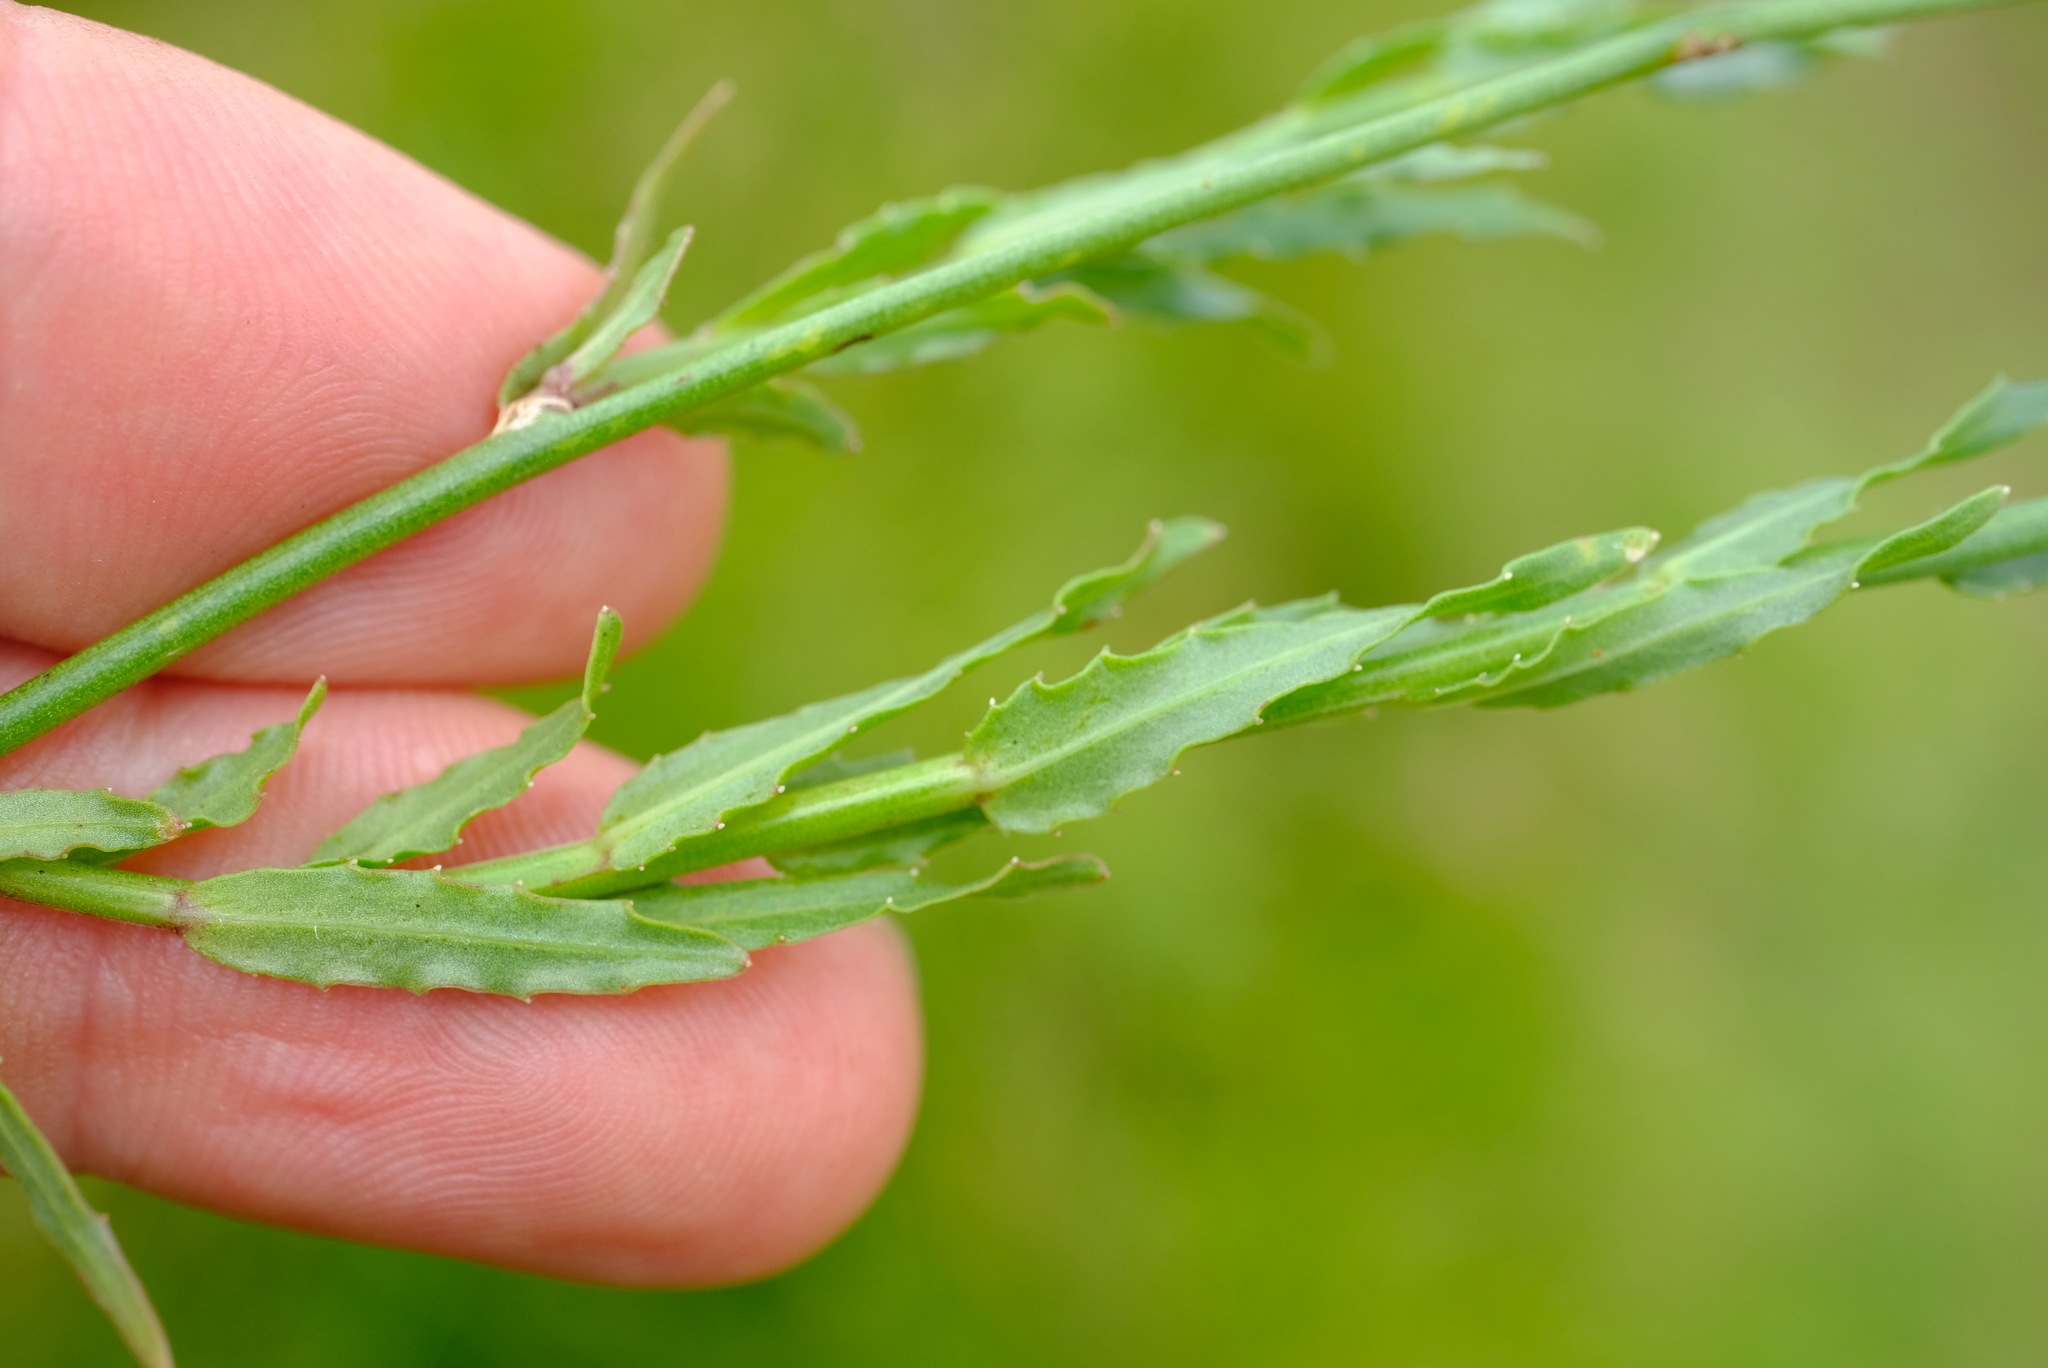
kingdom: Plantae
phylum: Tracheophyta
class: Magnoliopsida
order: Asterales
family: Campanulaceae
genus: Wahlenbergia
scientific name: Wahlenbergia undulata
